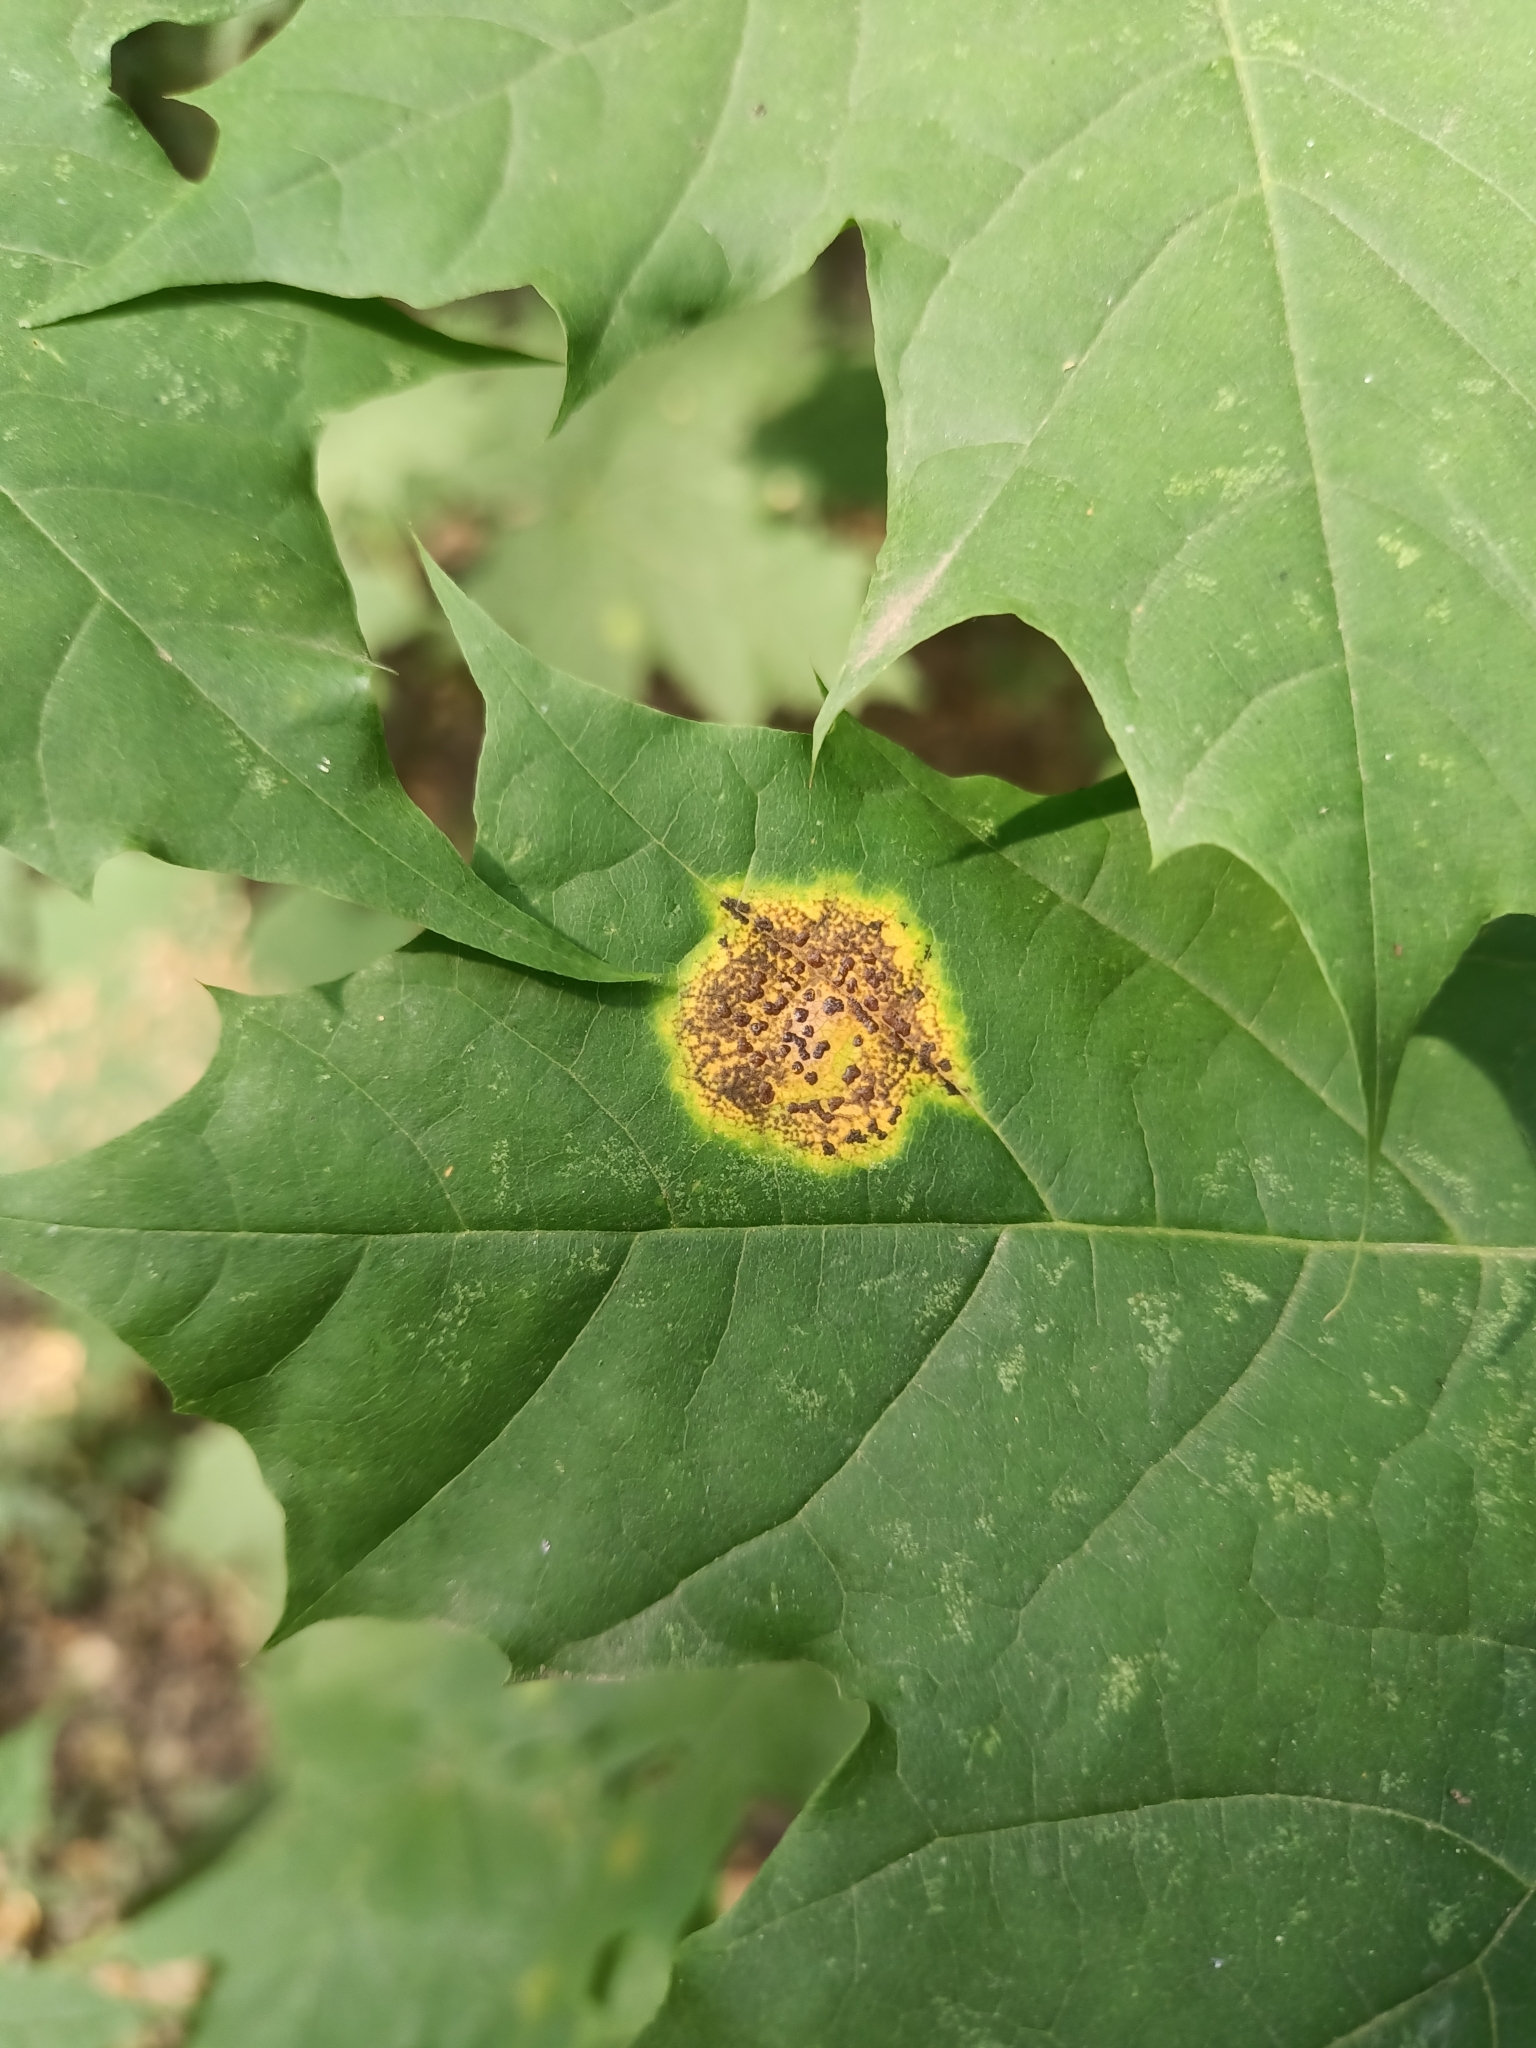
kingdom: Fungi
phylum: Ascomycota
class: Leotiomycetes
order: Rhytismatales
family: Rhytismataceae
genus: Rhytisma
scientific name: Rhytisma acerinum
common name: European tar spot
